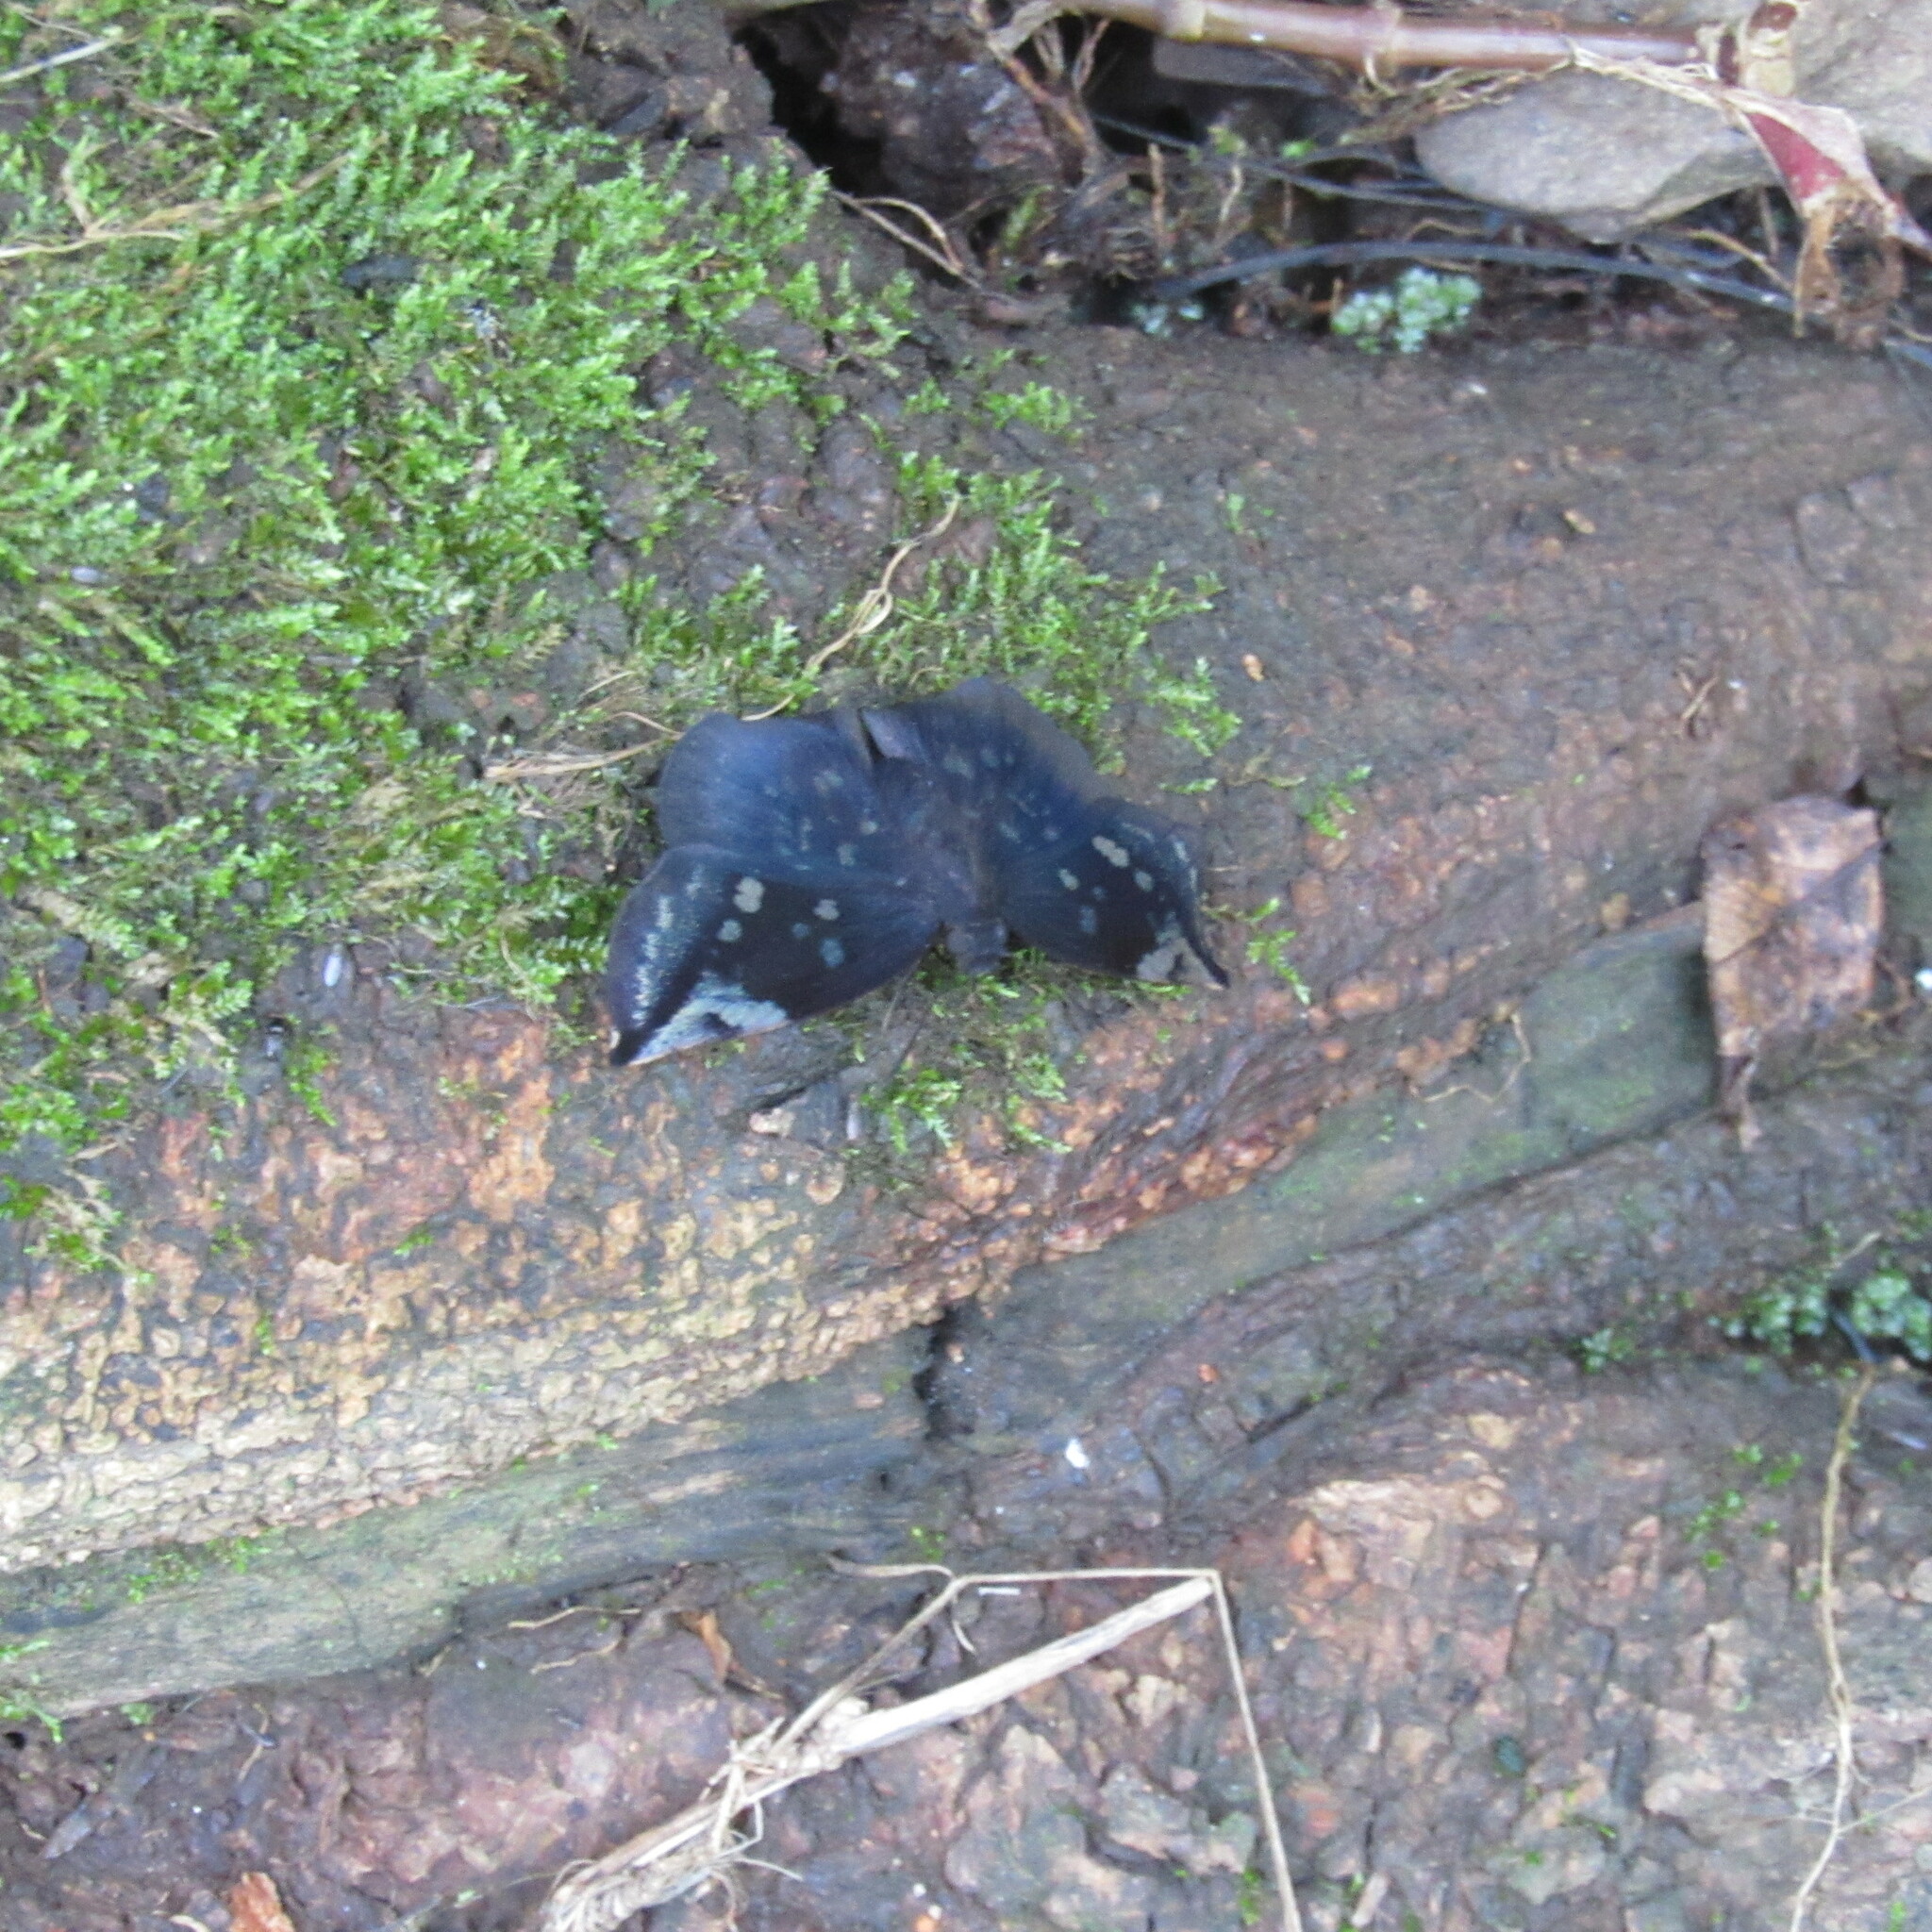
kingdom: Animalia
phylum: Arthropoda
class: Insecta
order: Lepidoptera
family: Hesperiidae
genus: Achlyodes
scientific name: Achlyodes thraso
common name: Sickle-winged skipper
